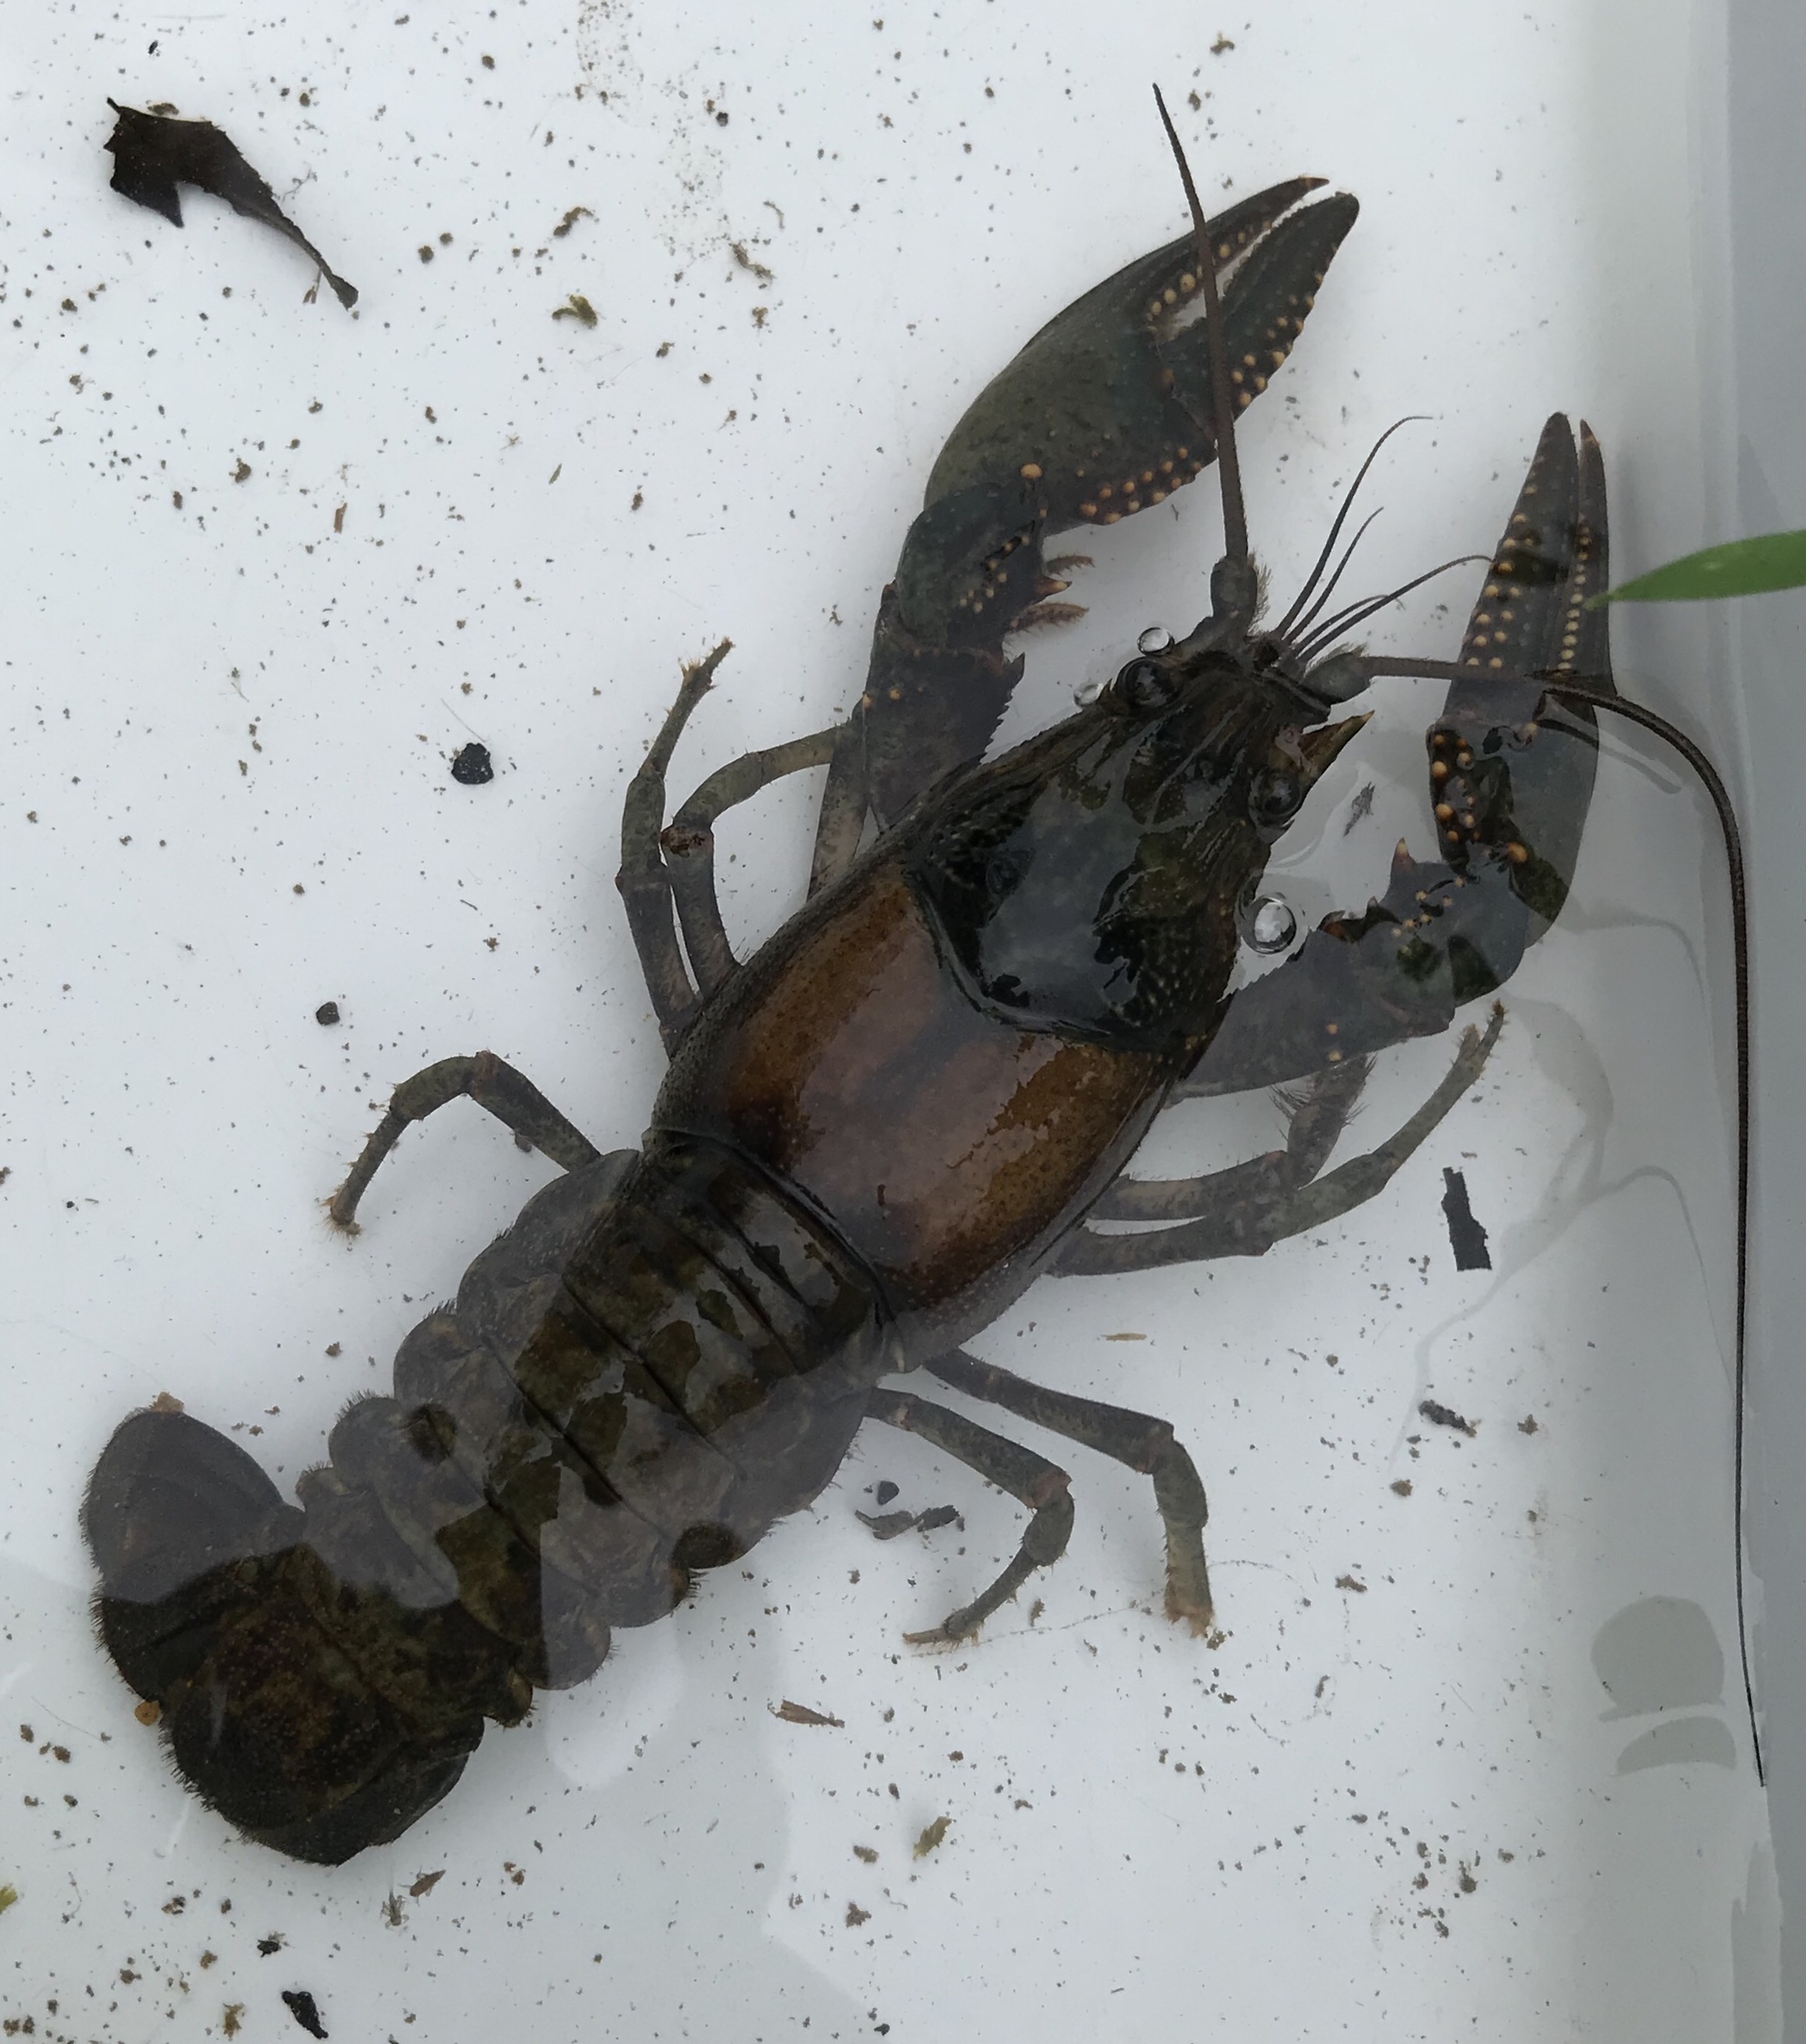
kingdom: Animalia
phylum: Arthropoda
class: Malacostraca
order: Decapoda
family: Cambaridae
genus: Faxonius
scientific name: Faxonius virilis
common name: Virile crayfish
